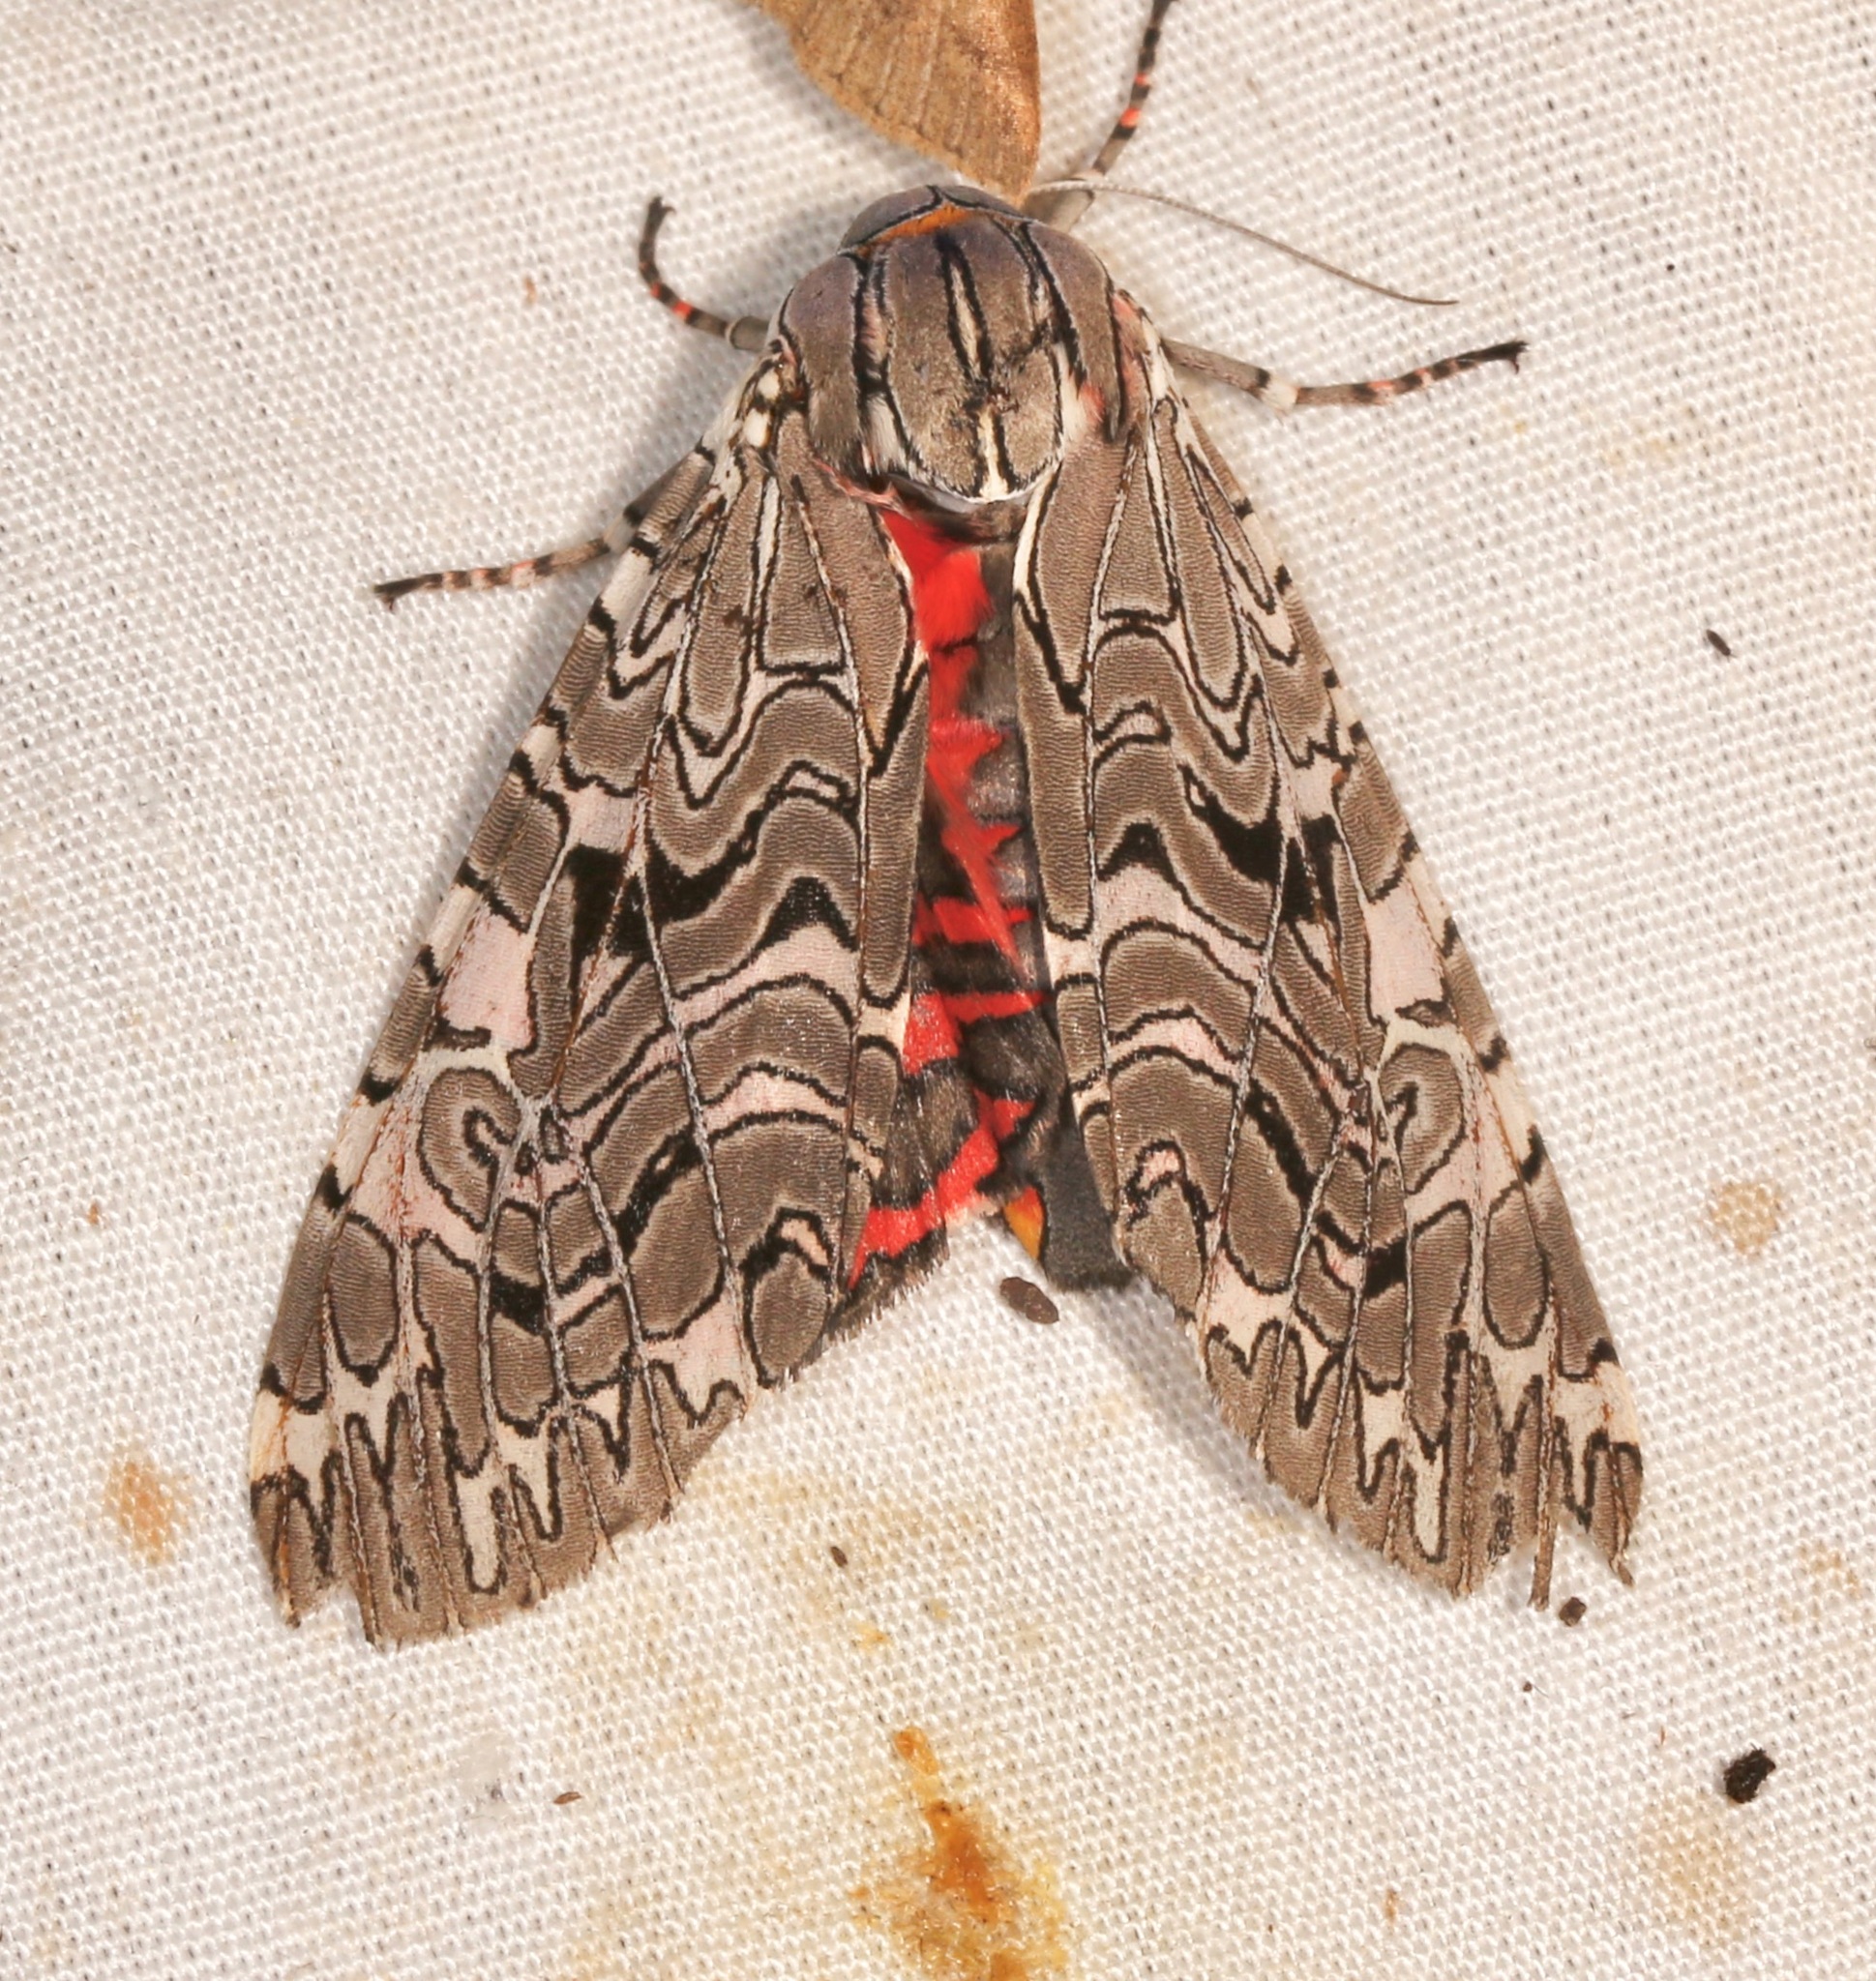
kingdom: Animalia
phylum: Arthropoda
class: Insecta
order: Lepidoptera
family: Erebidae
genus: Arachnis
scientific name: Arachnis picta
